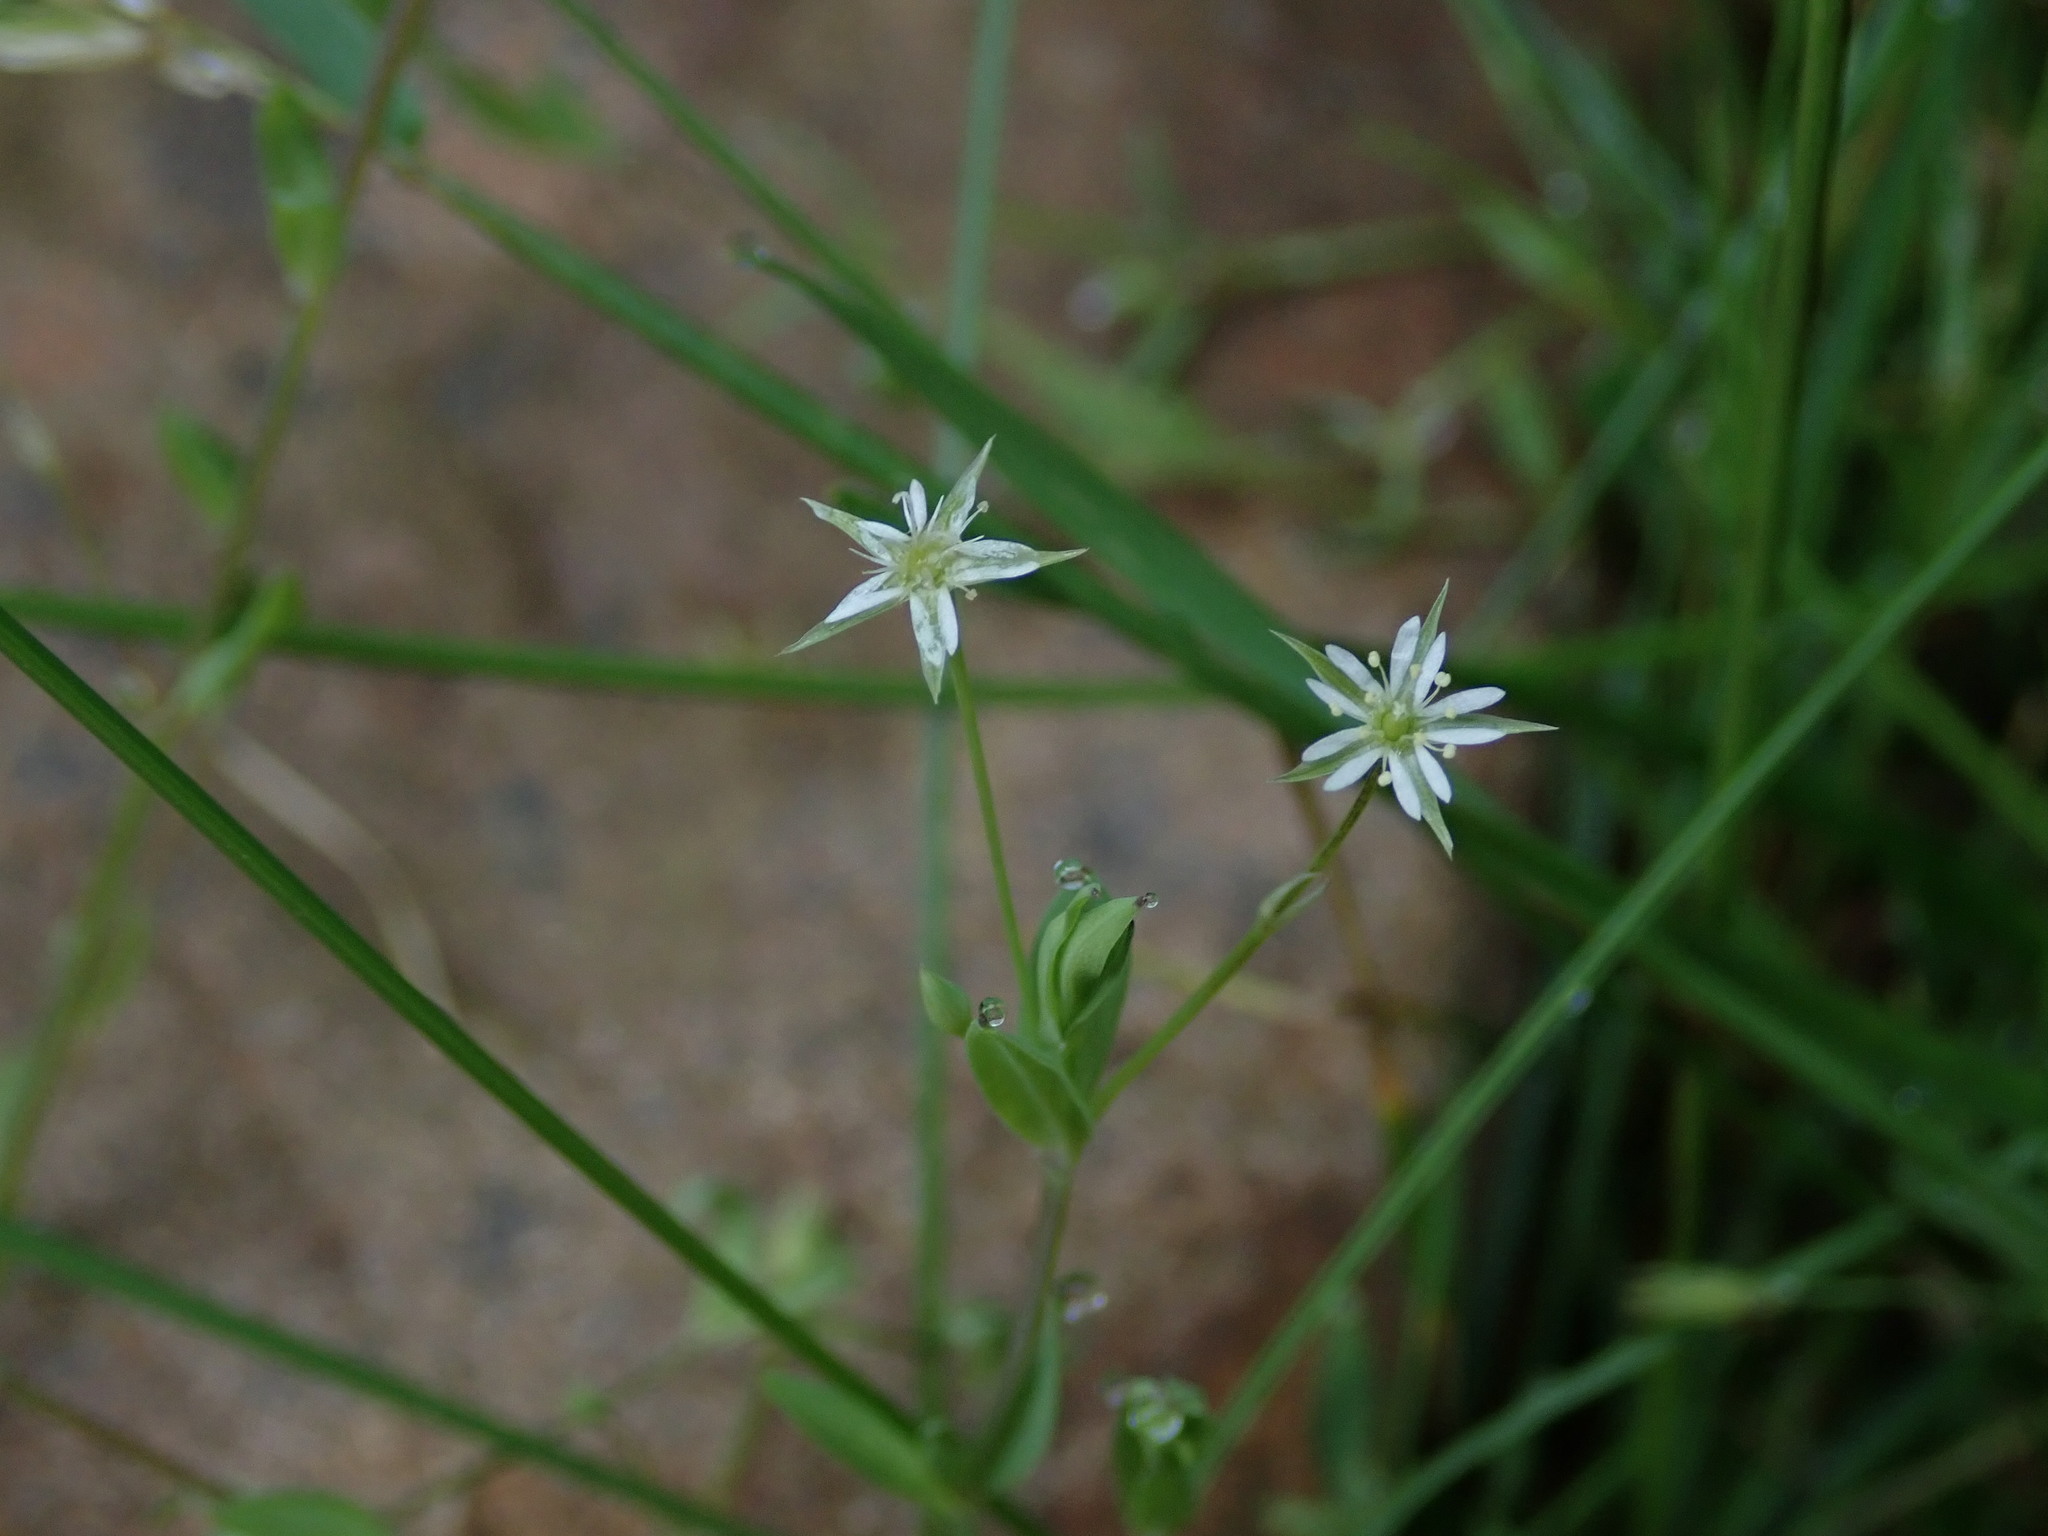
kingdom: Plantae
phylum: Tracheophyta
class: Magnoliopsida
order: Caryophyllales
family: Caryophyllaceae
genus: Stellaria
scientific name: Stellaria alsine
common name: Bog stitchwort
